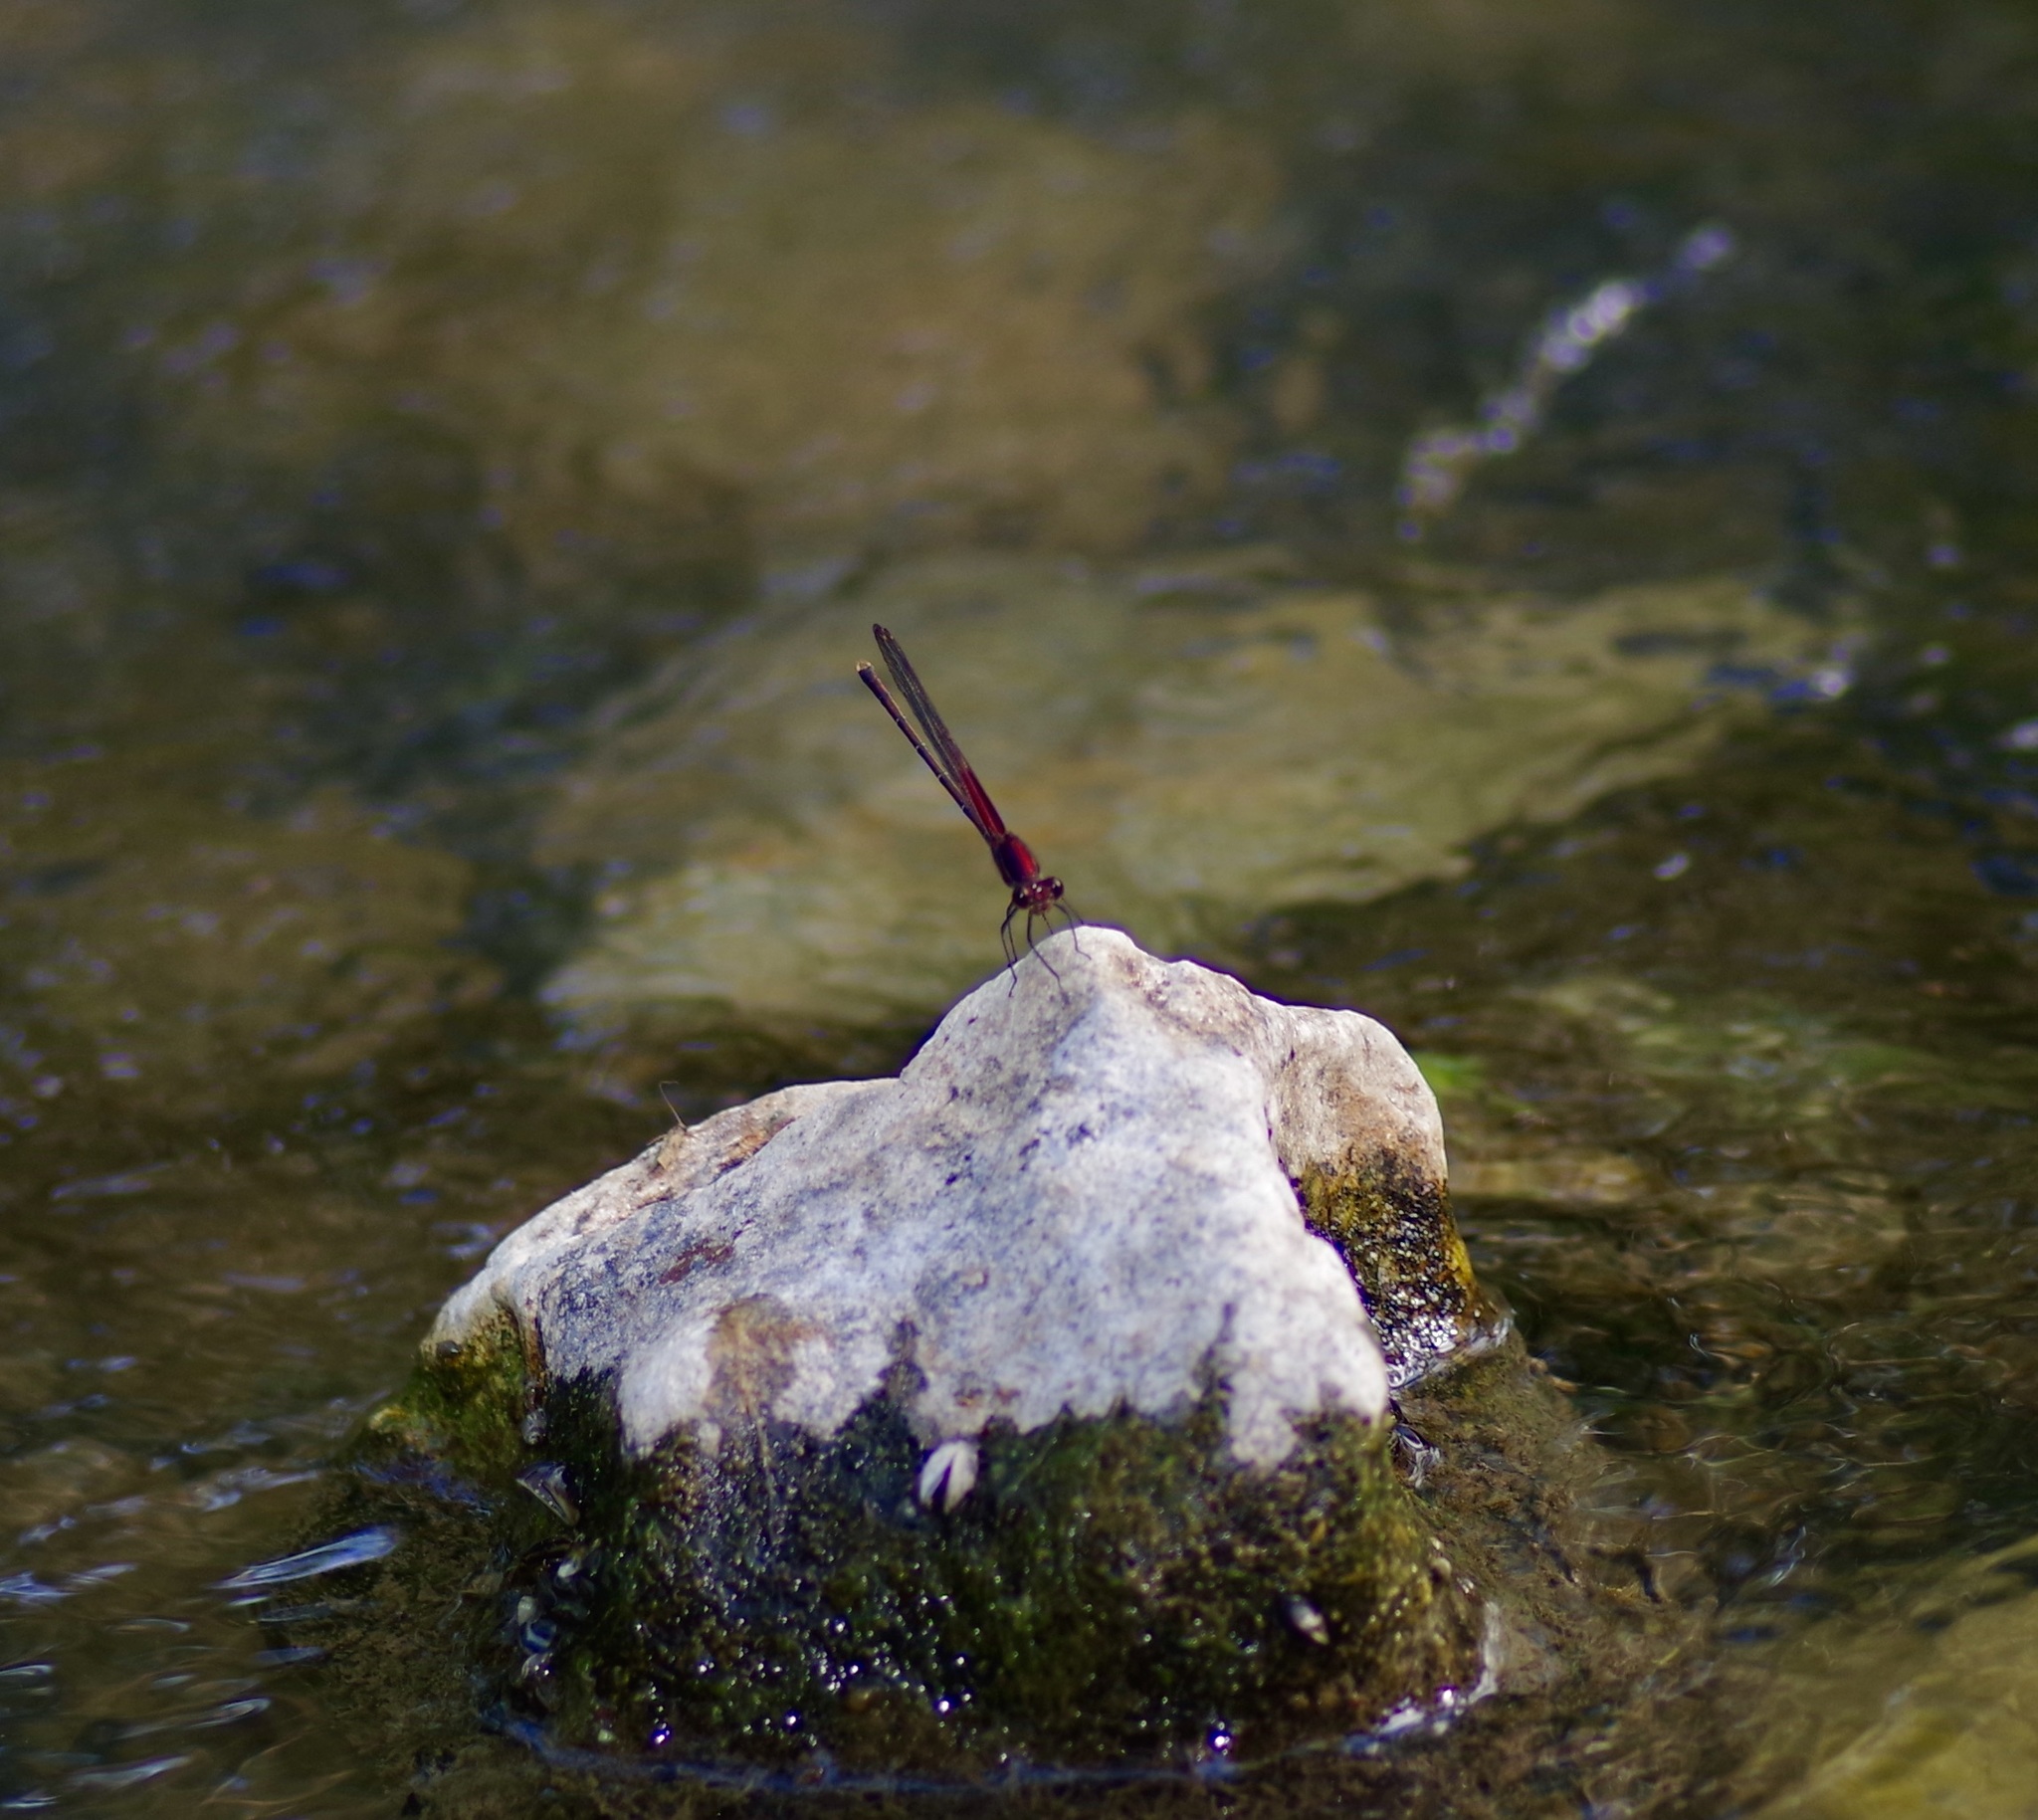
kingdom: Animalia
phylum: Arthropoda
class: Insecta
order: Odonata
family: Calopterygidae
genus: Hetaerina
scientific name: Hetaerina americana
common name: American rubyspot
